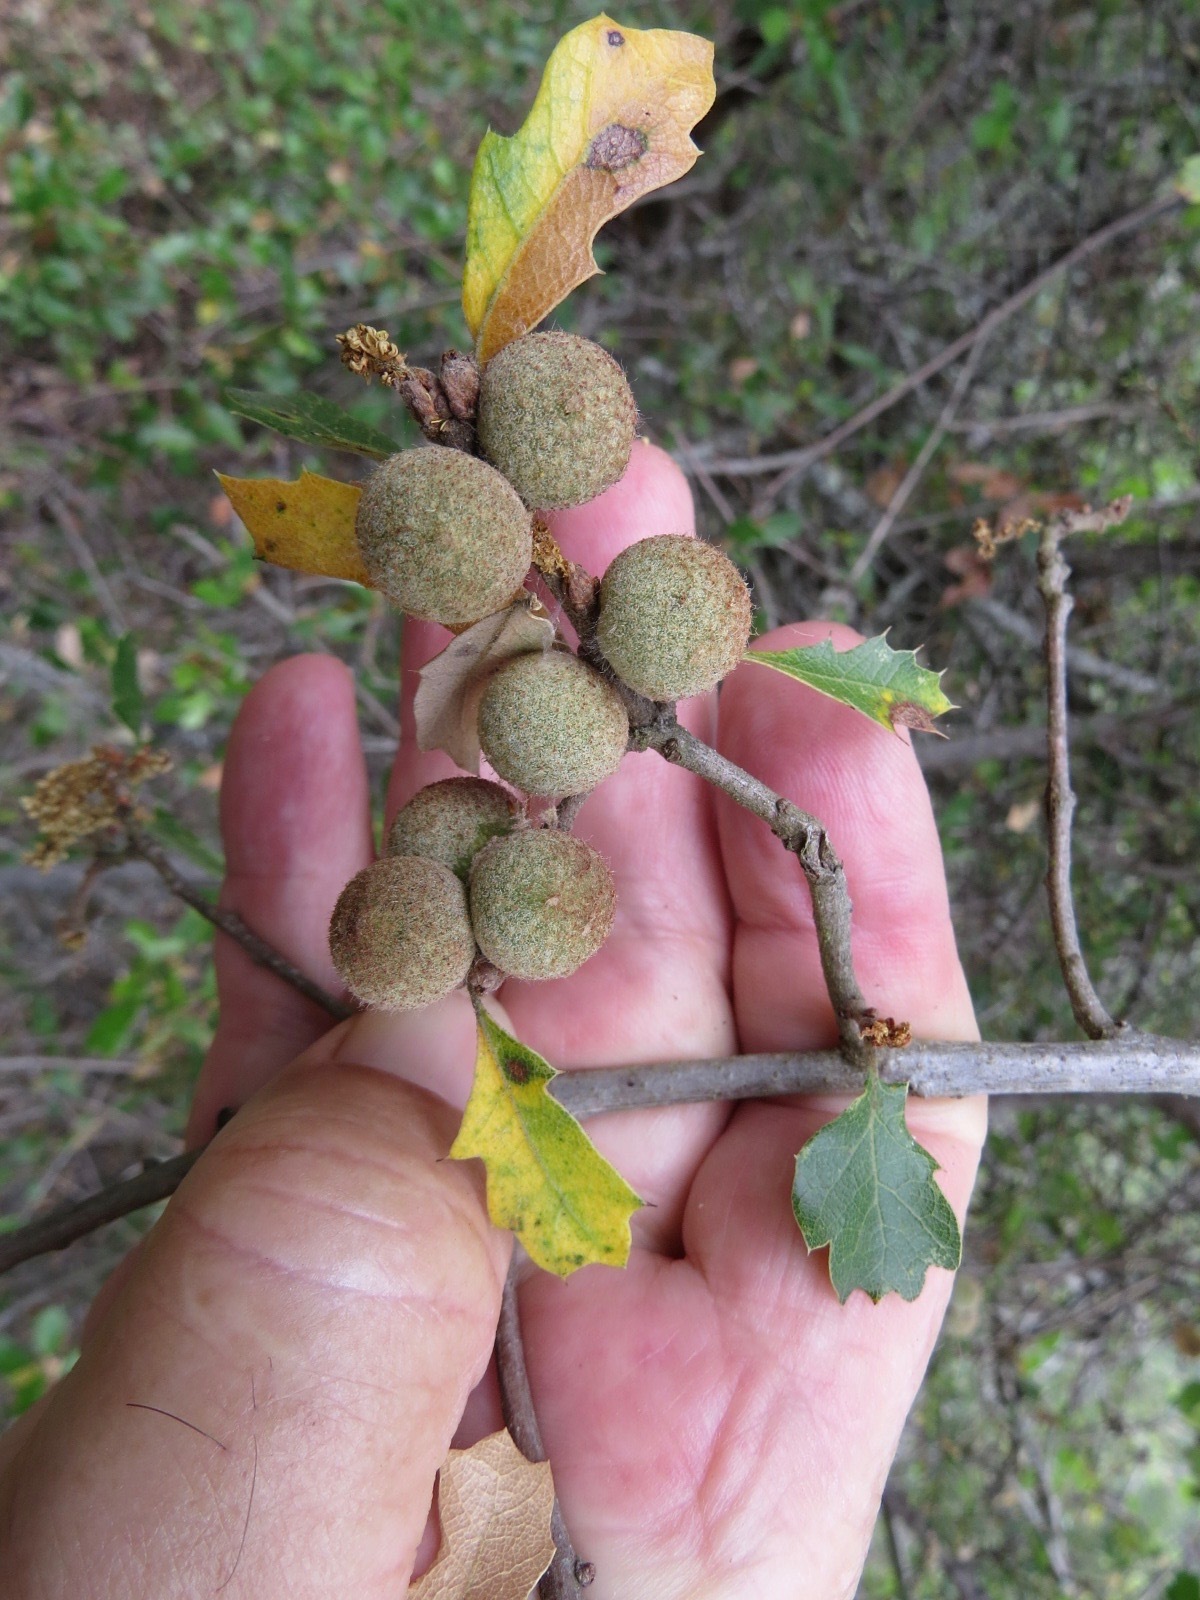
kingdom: Animalia
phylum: Arthropoda
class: Insecta
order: Hymenoptera
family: Cynipidae
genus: Burnettweldia
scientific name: Burnettweldia
